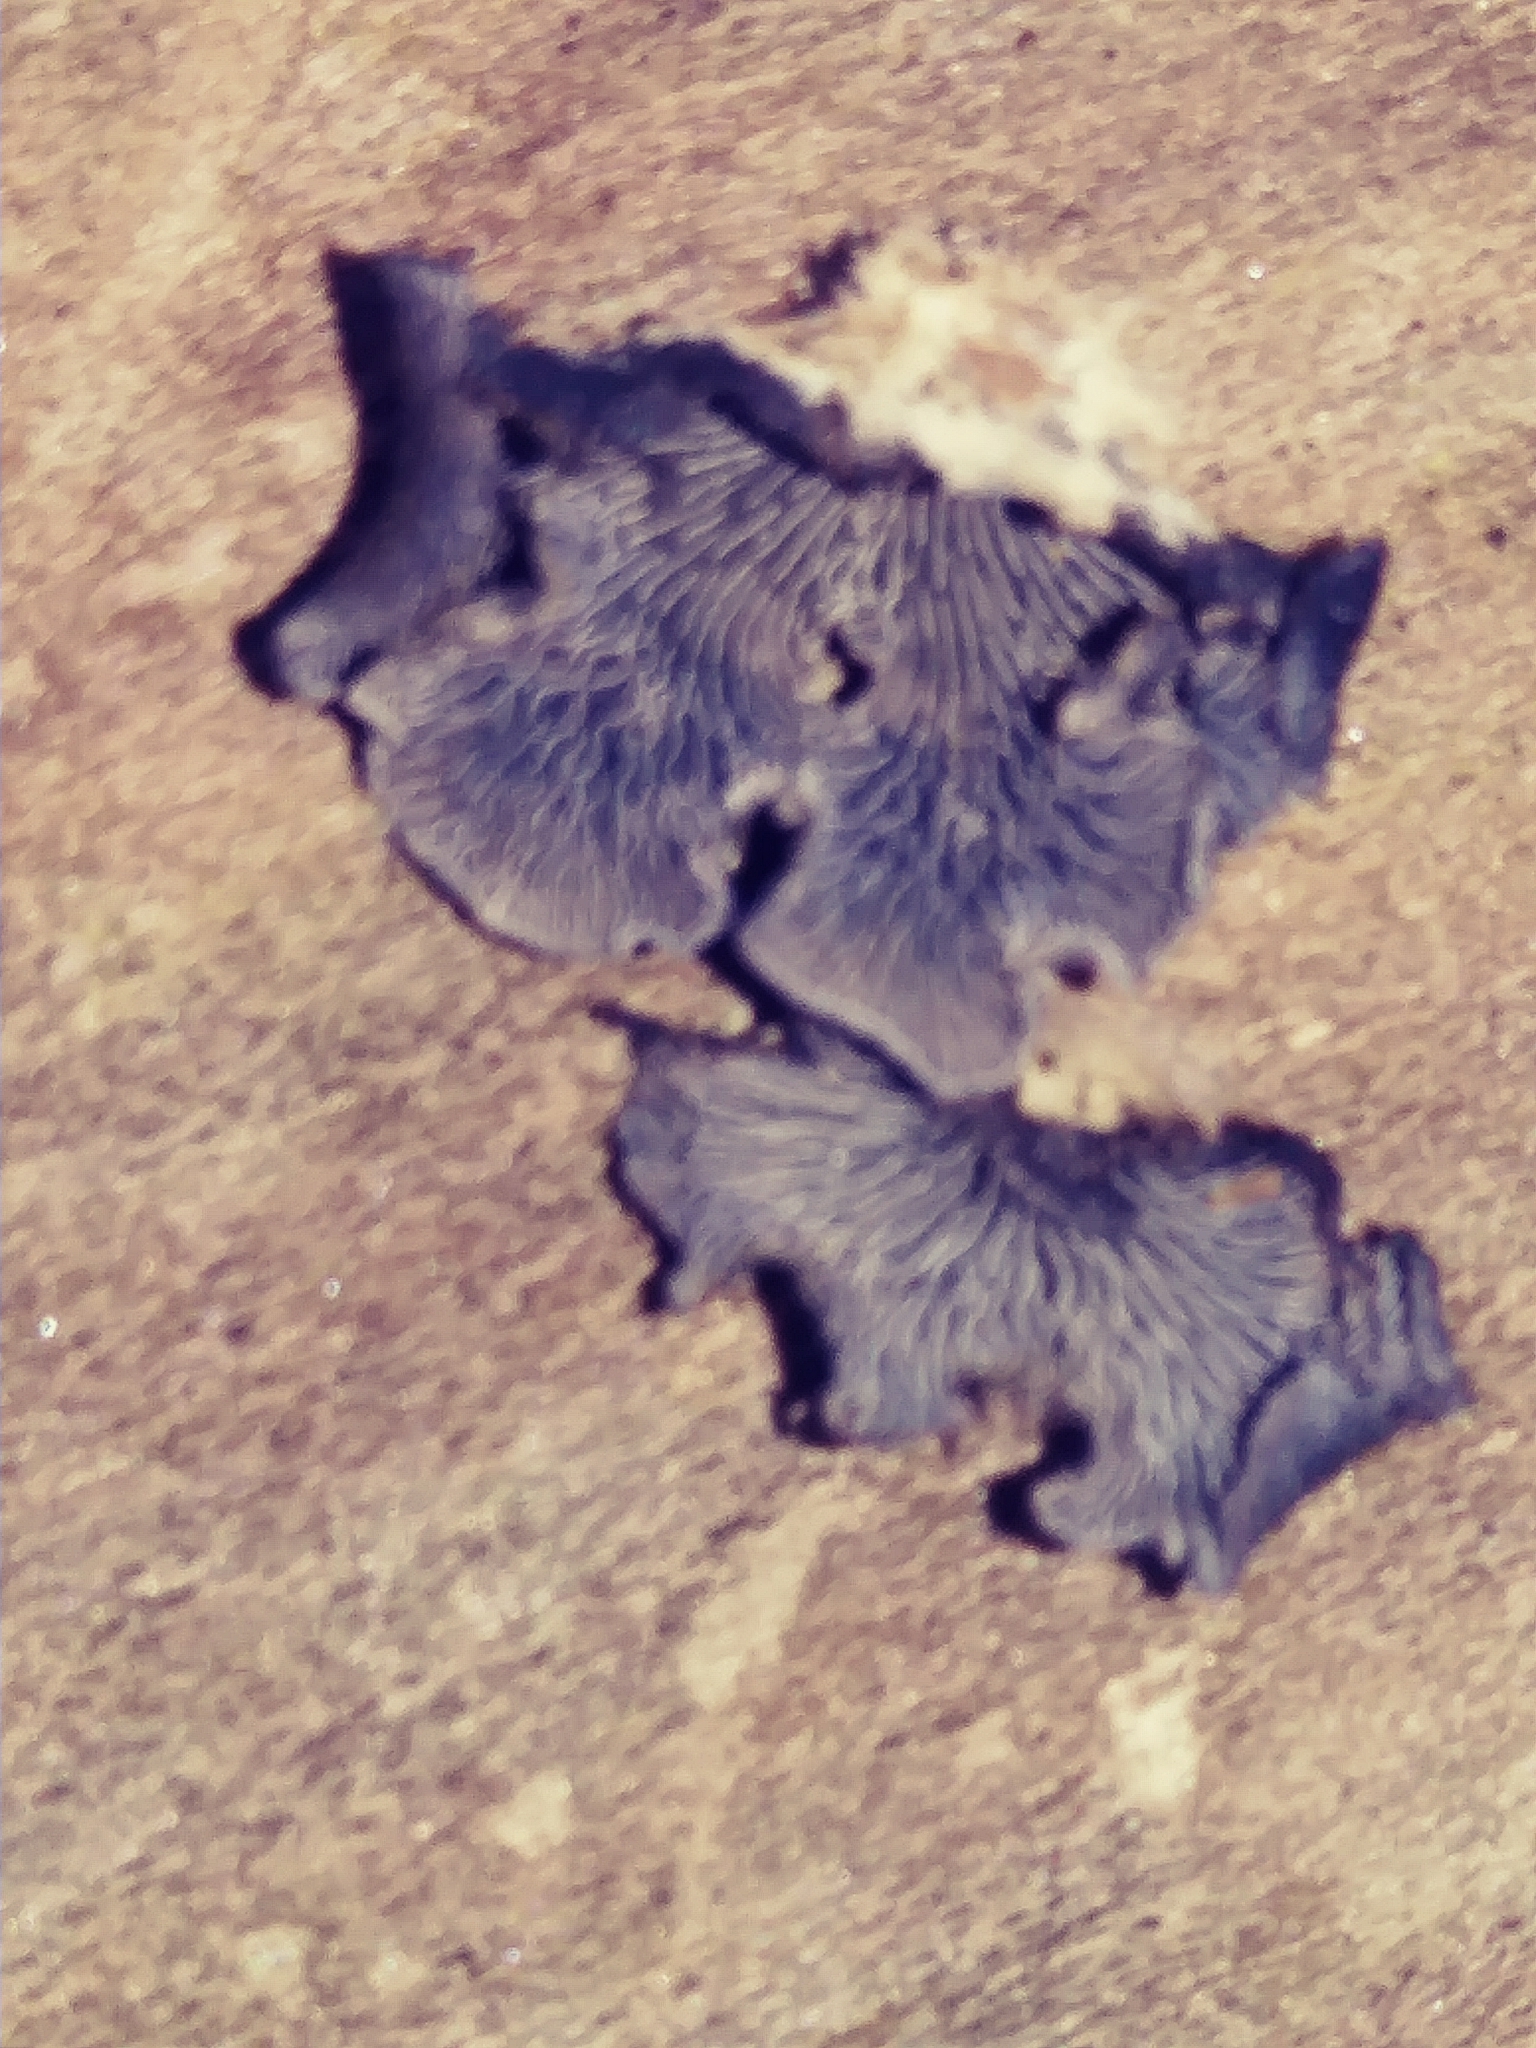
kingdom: Fungi
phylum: Basidiomycota
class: Agaricomycetes
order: Agaricales
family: Pleurotaceae
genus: Resupinatus
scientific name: Resupinatus applicatus
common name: Smoked oysterling
